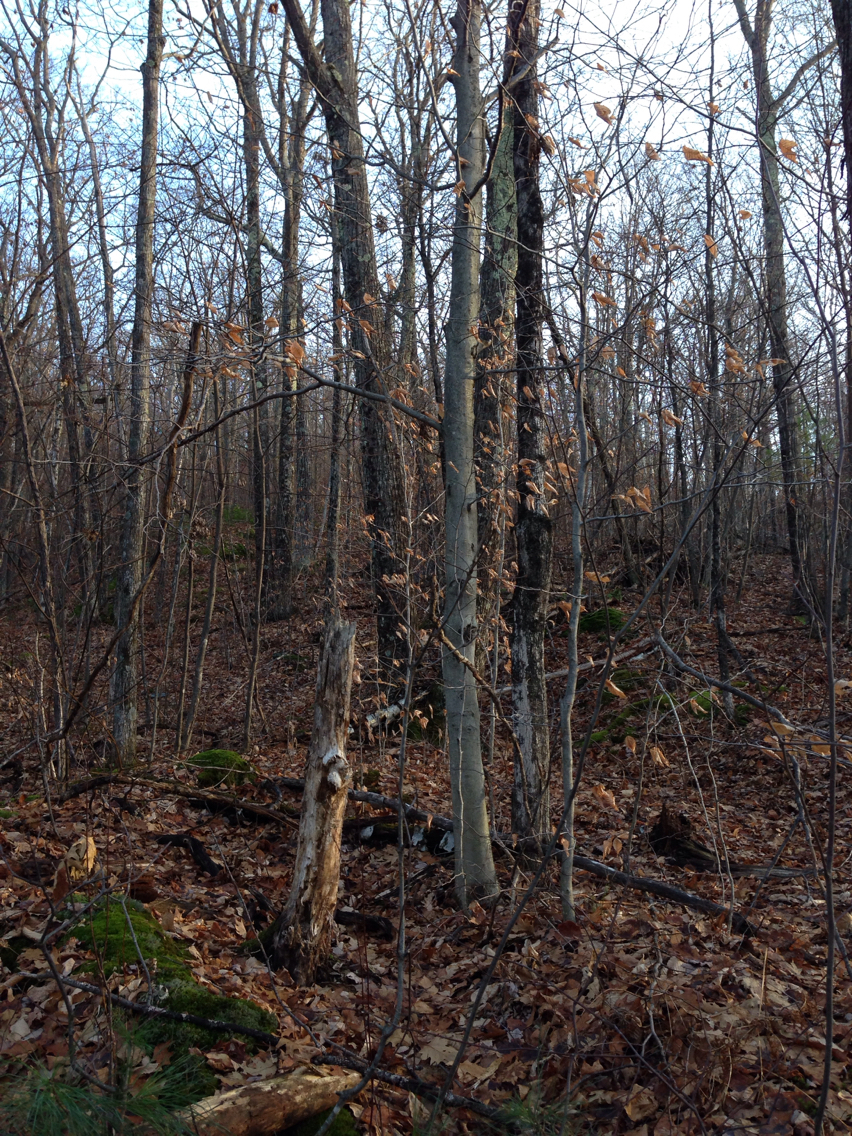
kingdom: Plantae
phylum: Tracheophyta
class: Magnoliopsida
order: Fagales
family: Fagaceae
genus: Fagus
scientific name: Fagus grandifolia
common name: American beech
